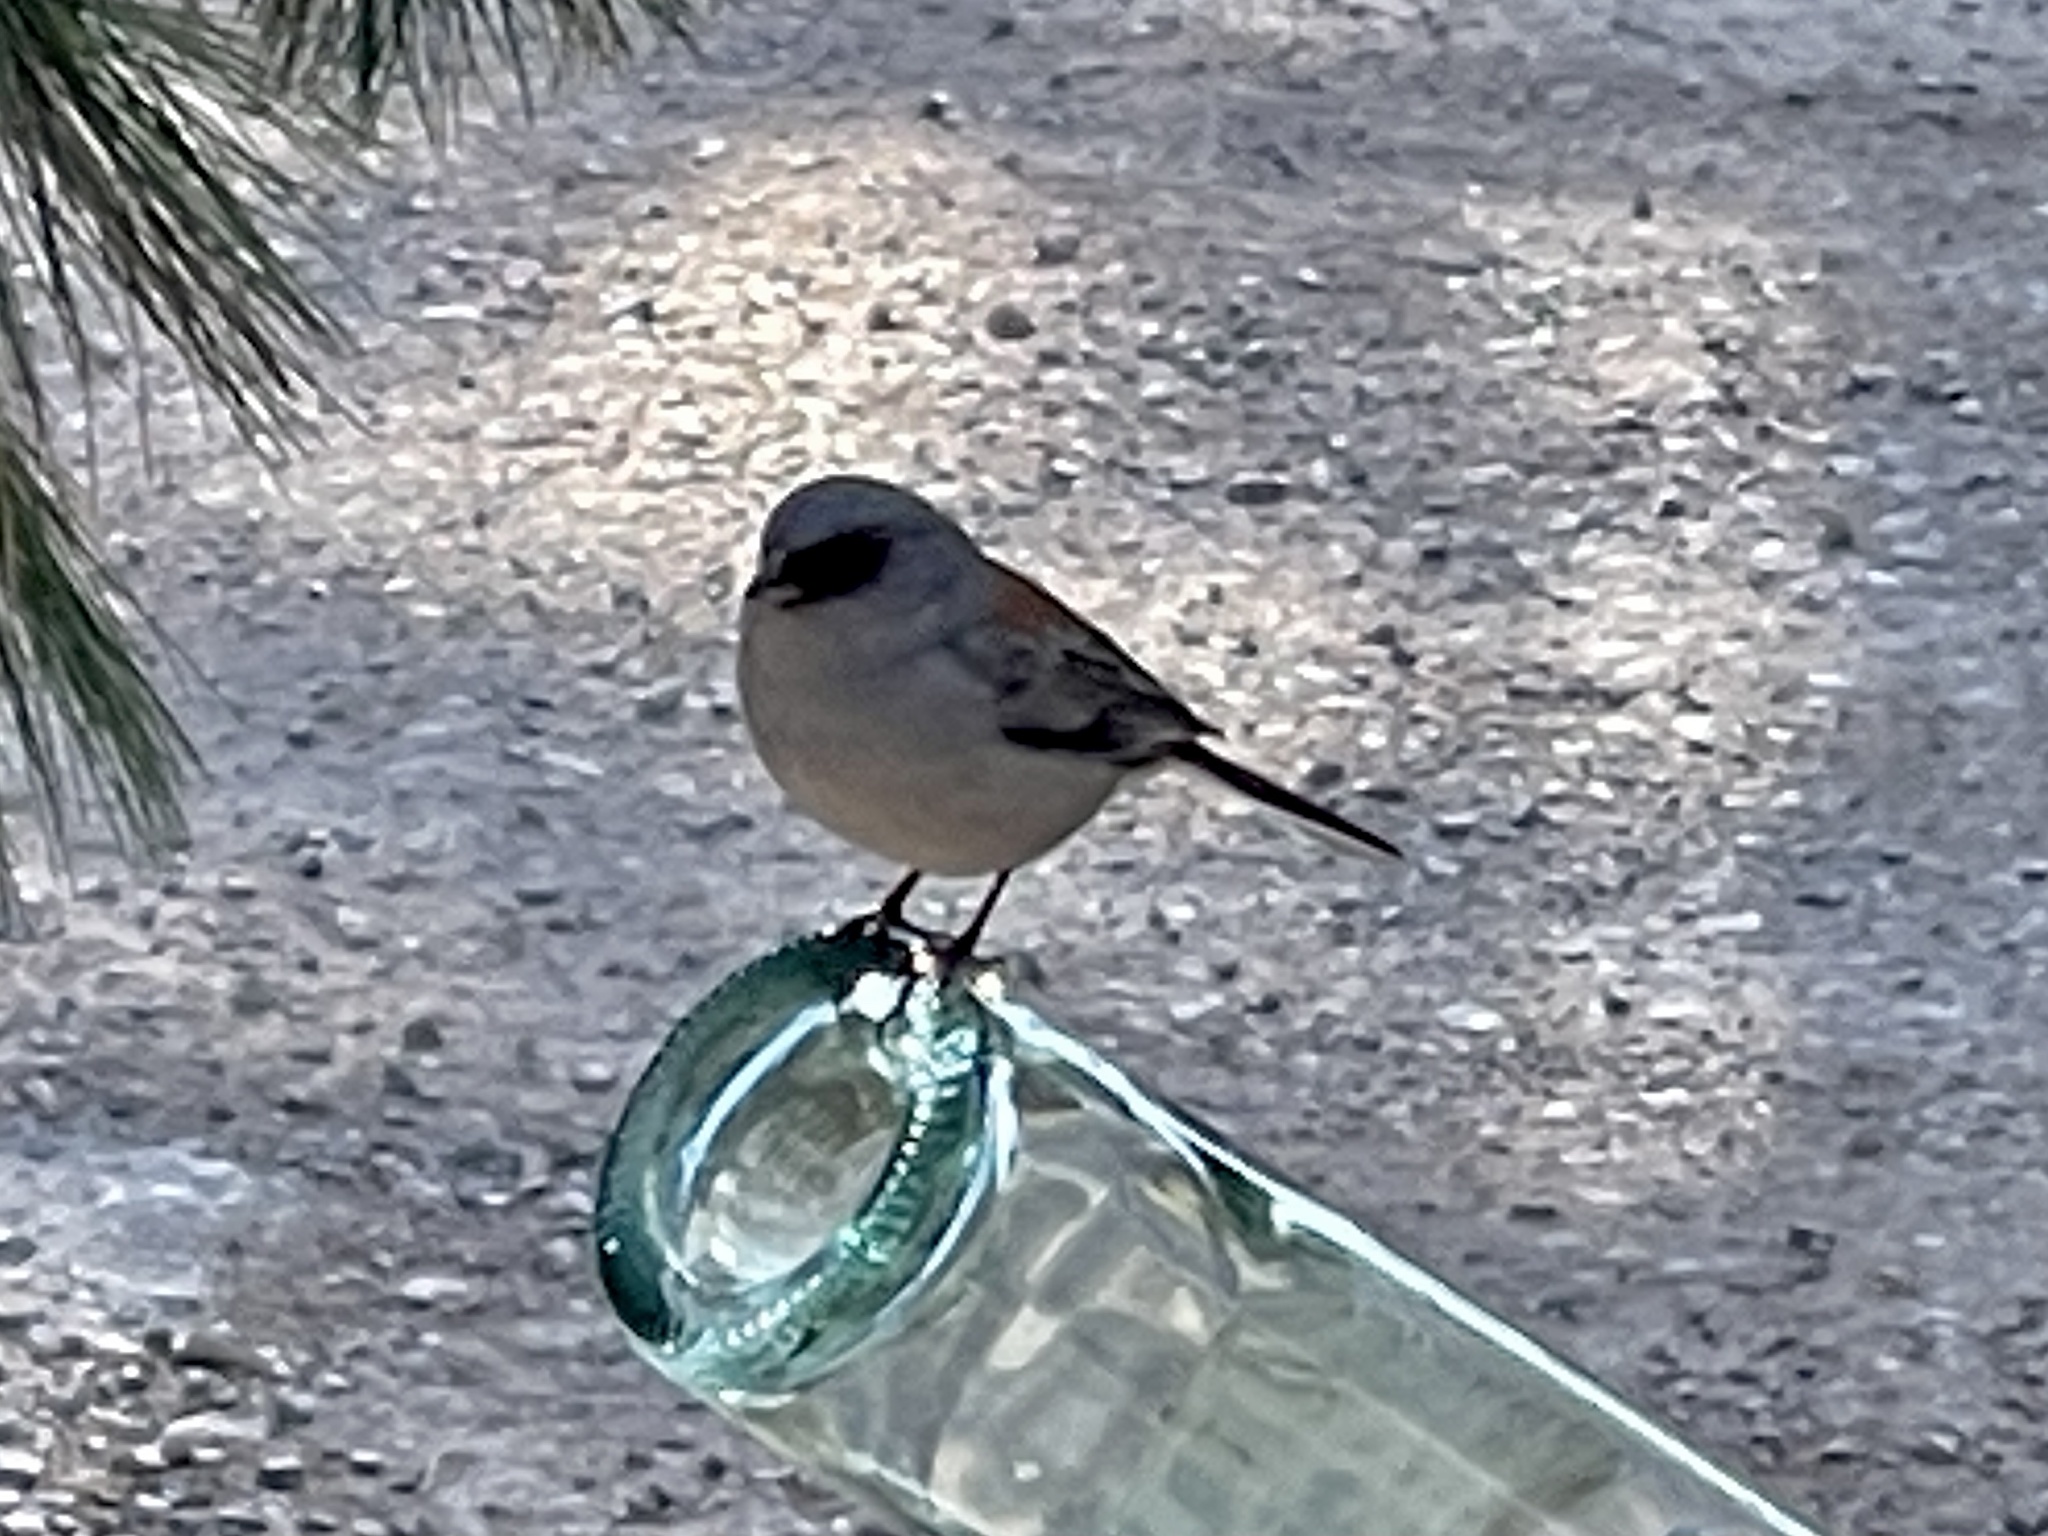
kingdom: Animalia
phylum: Chordata
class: Aves
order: Passeriformes
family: Passerellidae
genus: Junco
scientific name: Junco hyemalis
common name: Dark-eyed junco
